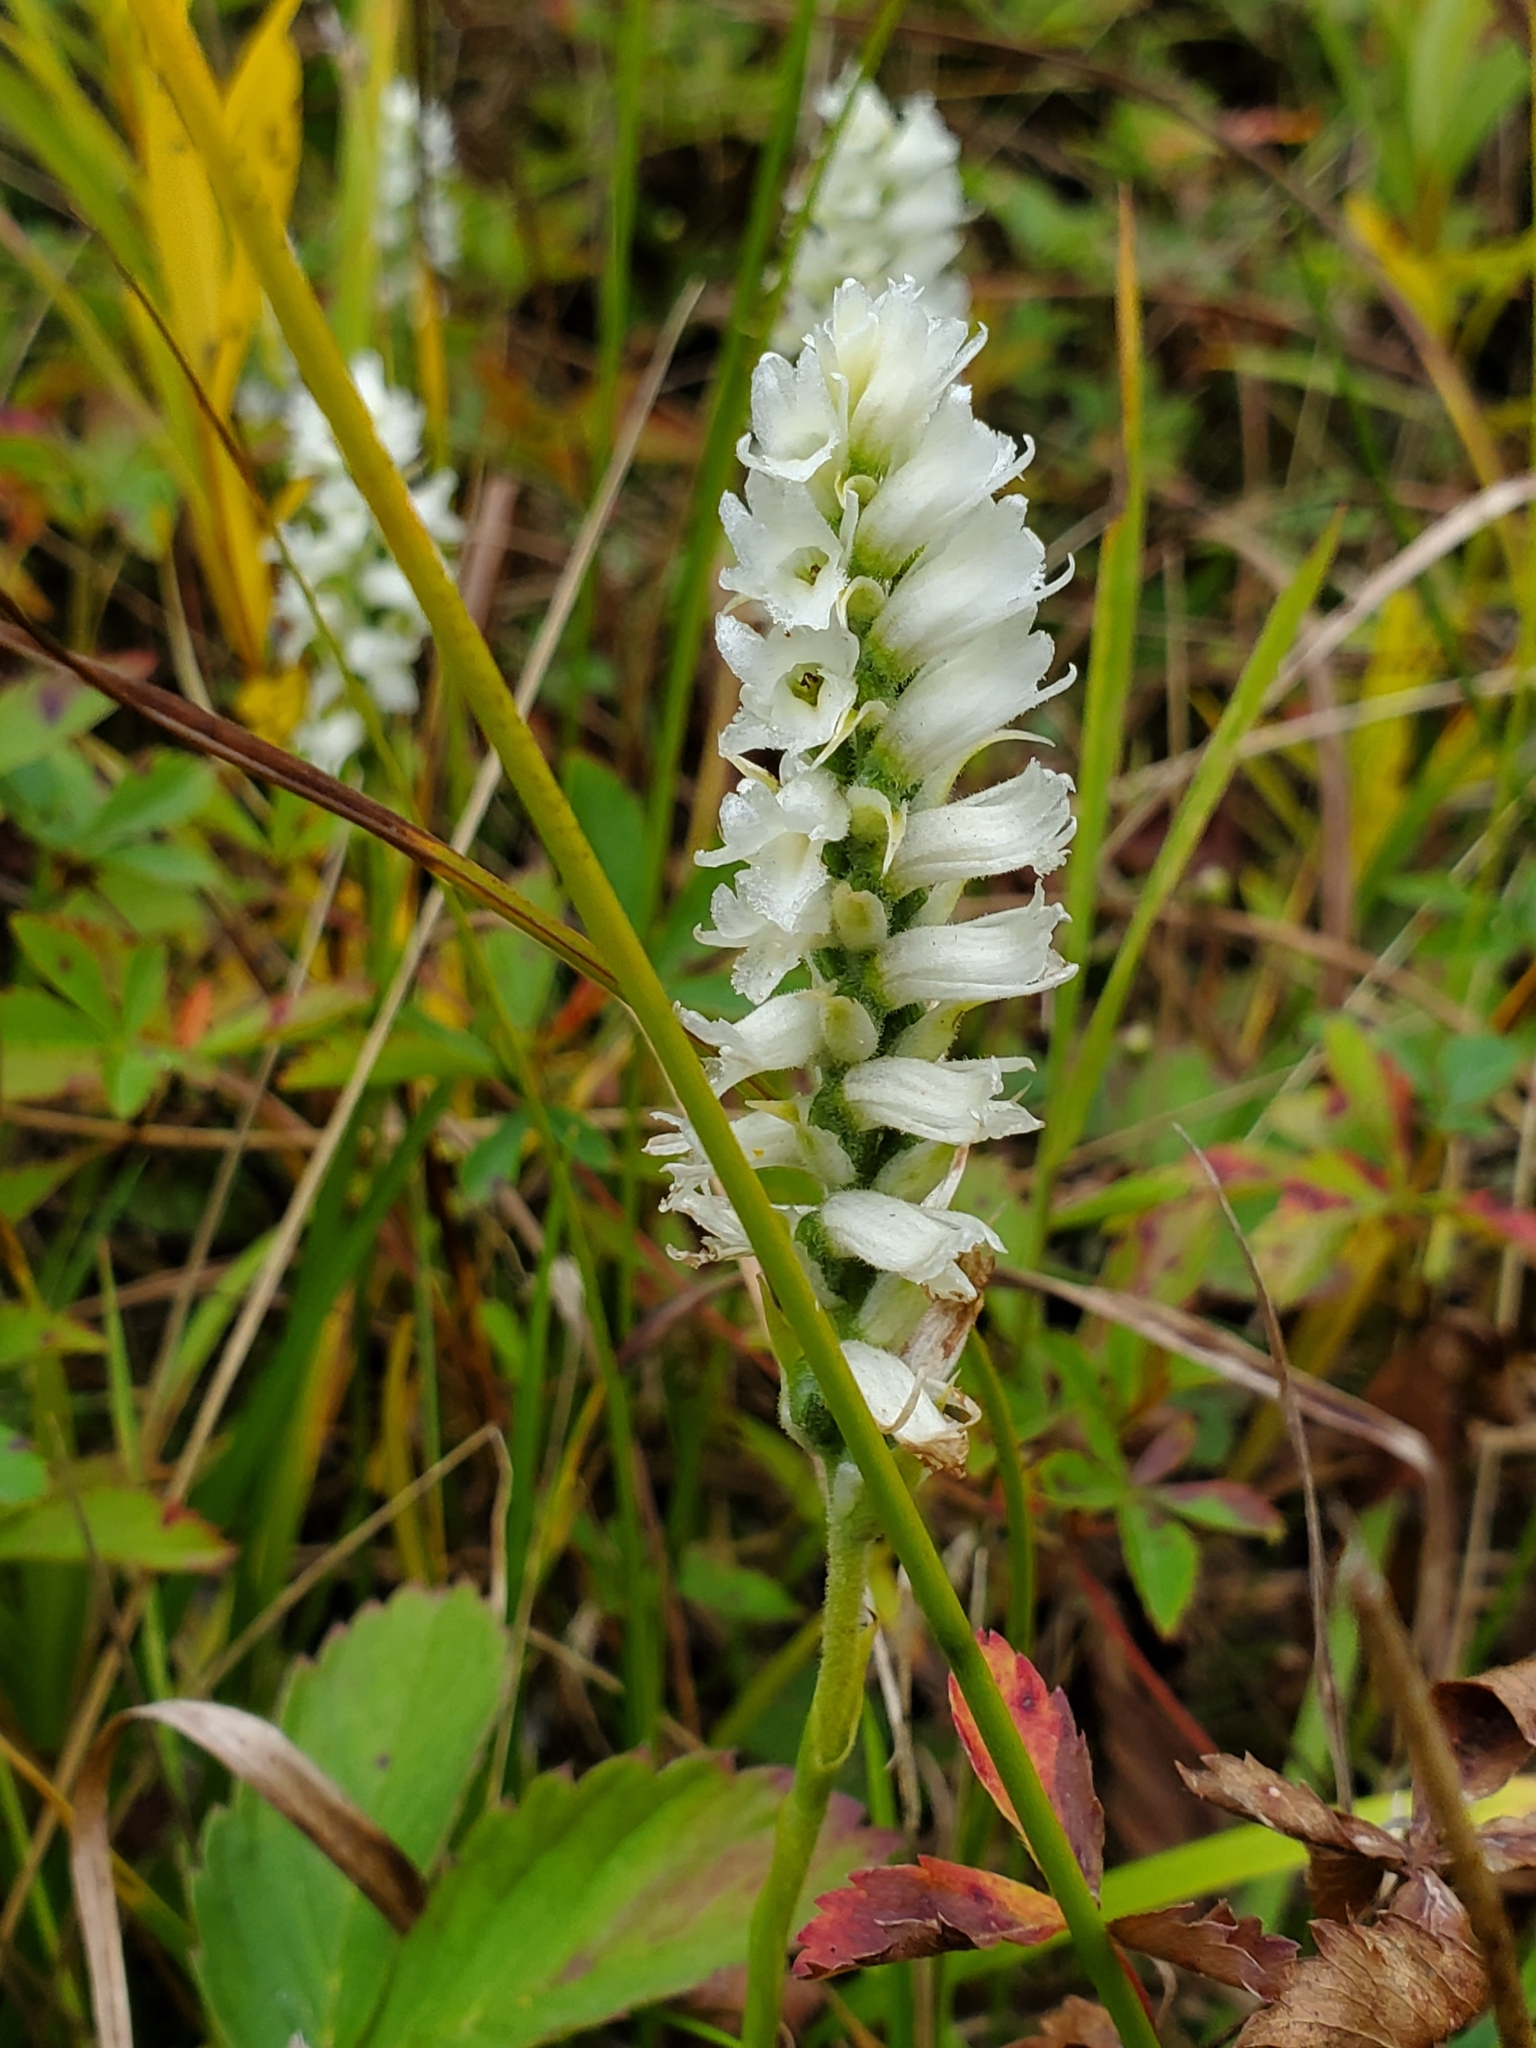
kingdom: Plantae
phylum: Tracheophyta
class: Liliopsida
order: Asparagales
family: Orchidaceae
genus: Spiranthes
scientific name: Spiranthes incurva
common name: Sphinx ladies'-tresses
